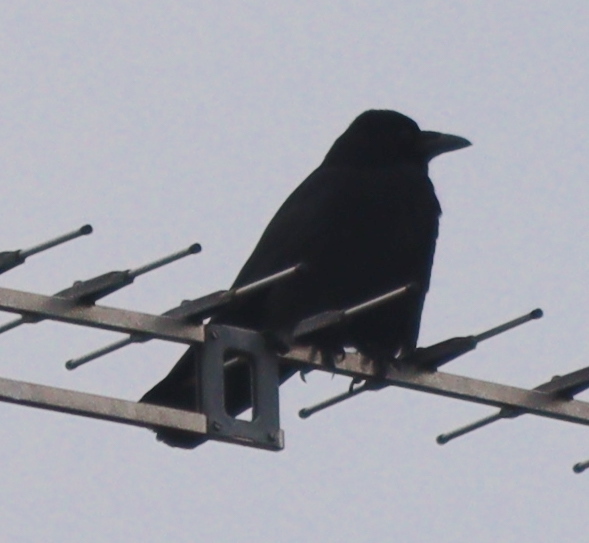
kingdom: Animalia
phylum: Chordata
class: Aves
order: Passeriformes
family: Corvidae
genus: Corvus
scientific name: Corvus corone
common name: Carrion crow
